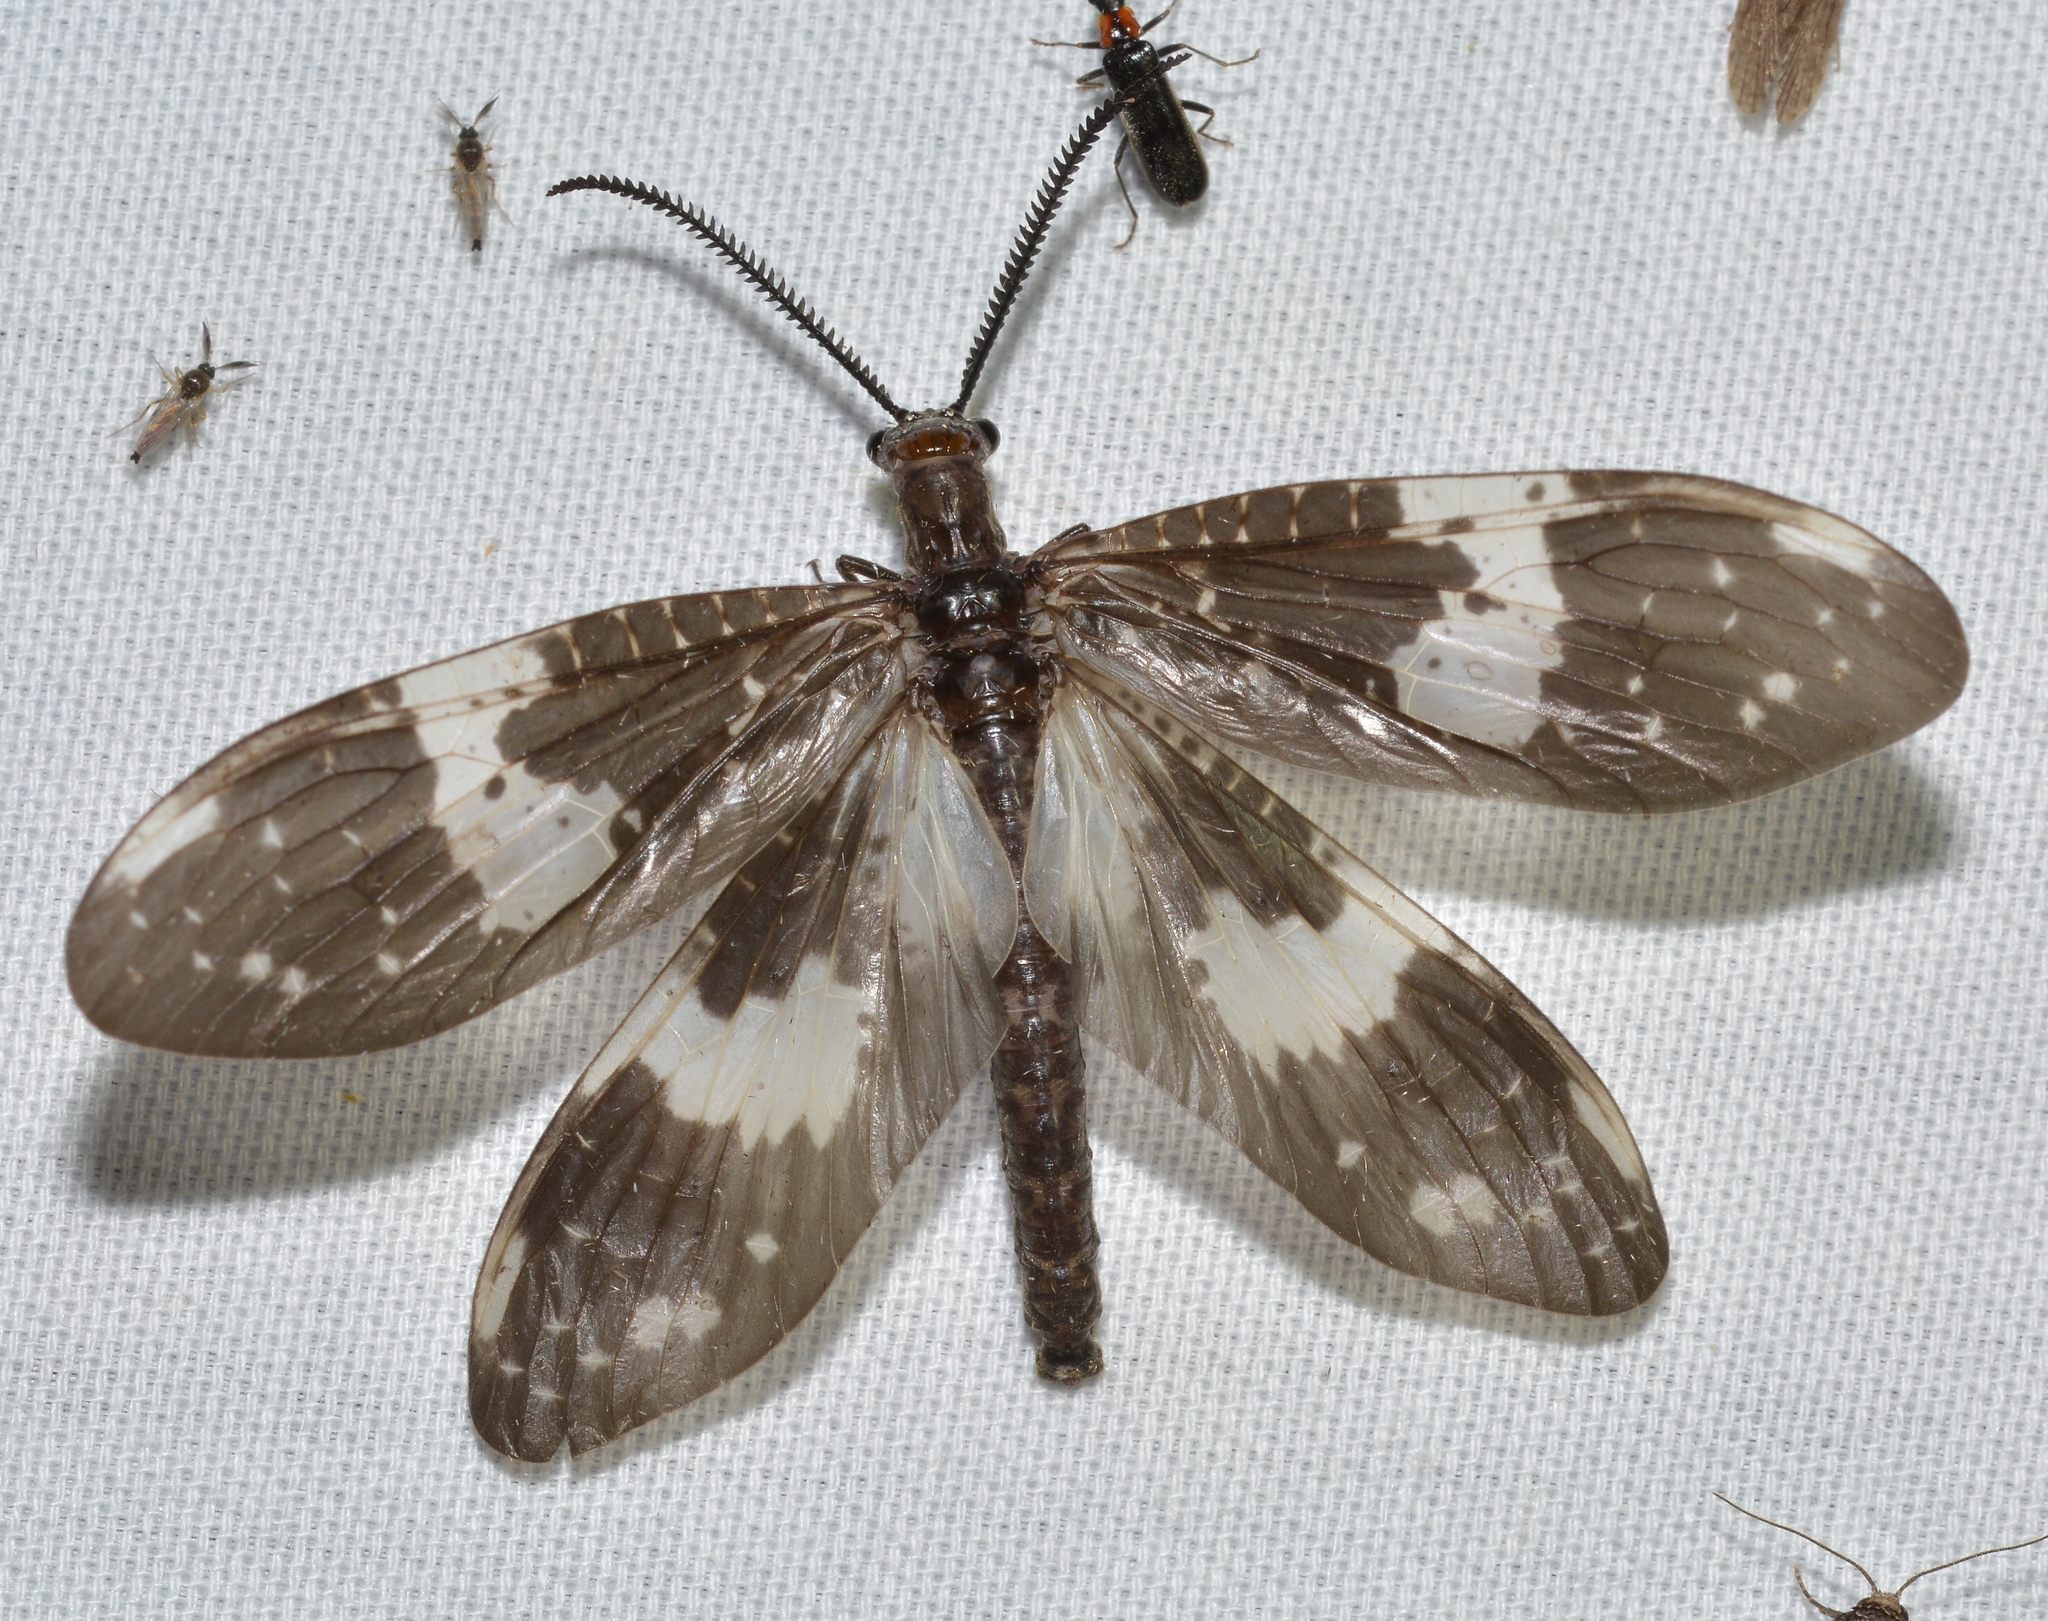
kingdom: Animalia
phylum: Arthropoda
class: Insecta
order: Megaloptera
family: Corydalidae
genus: Nigronia
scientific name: Nigronia fasciata
